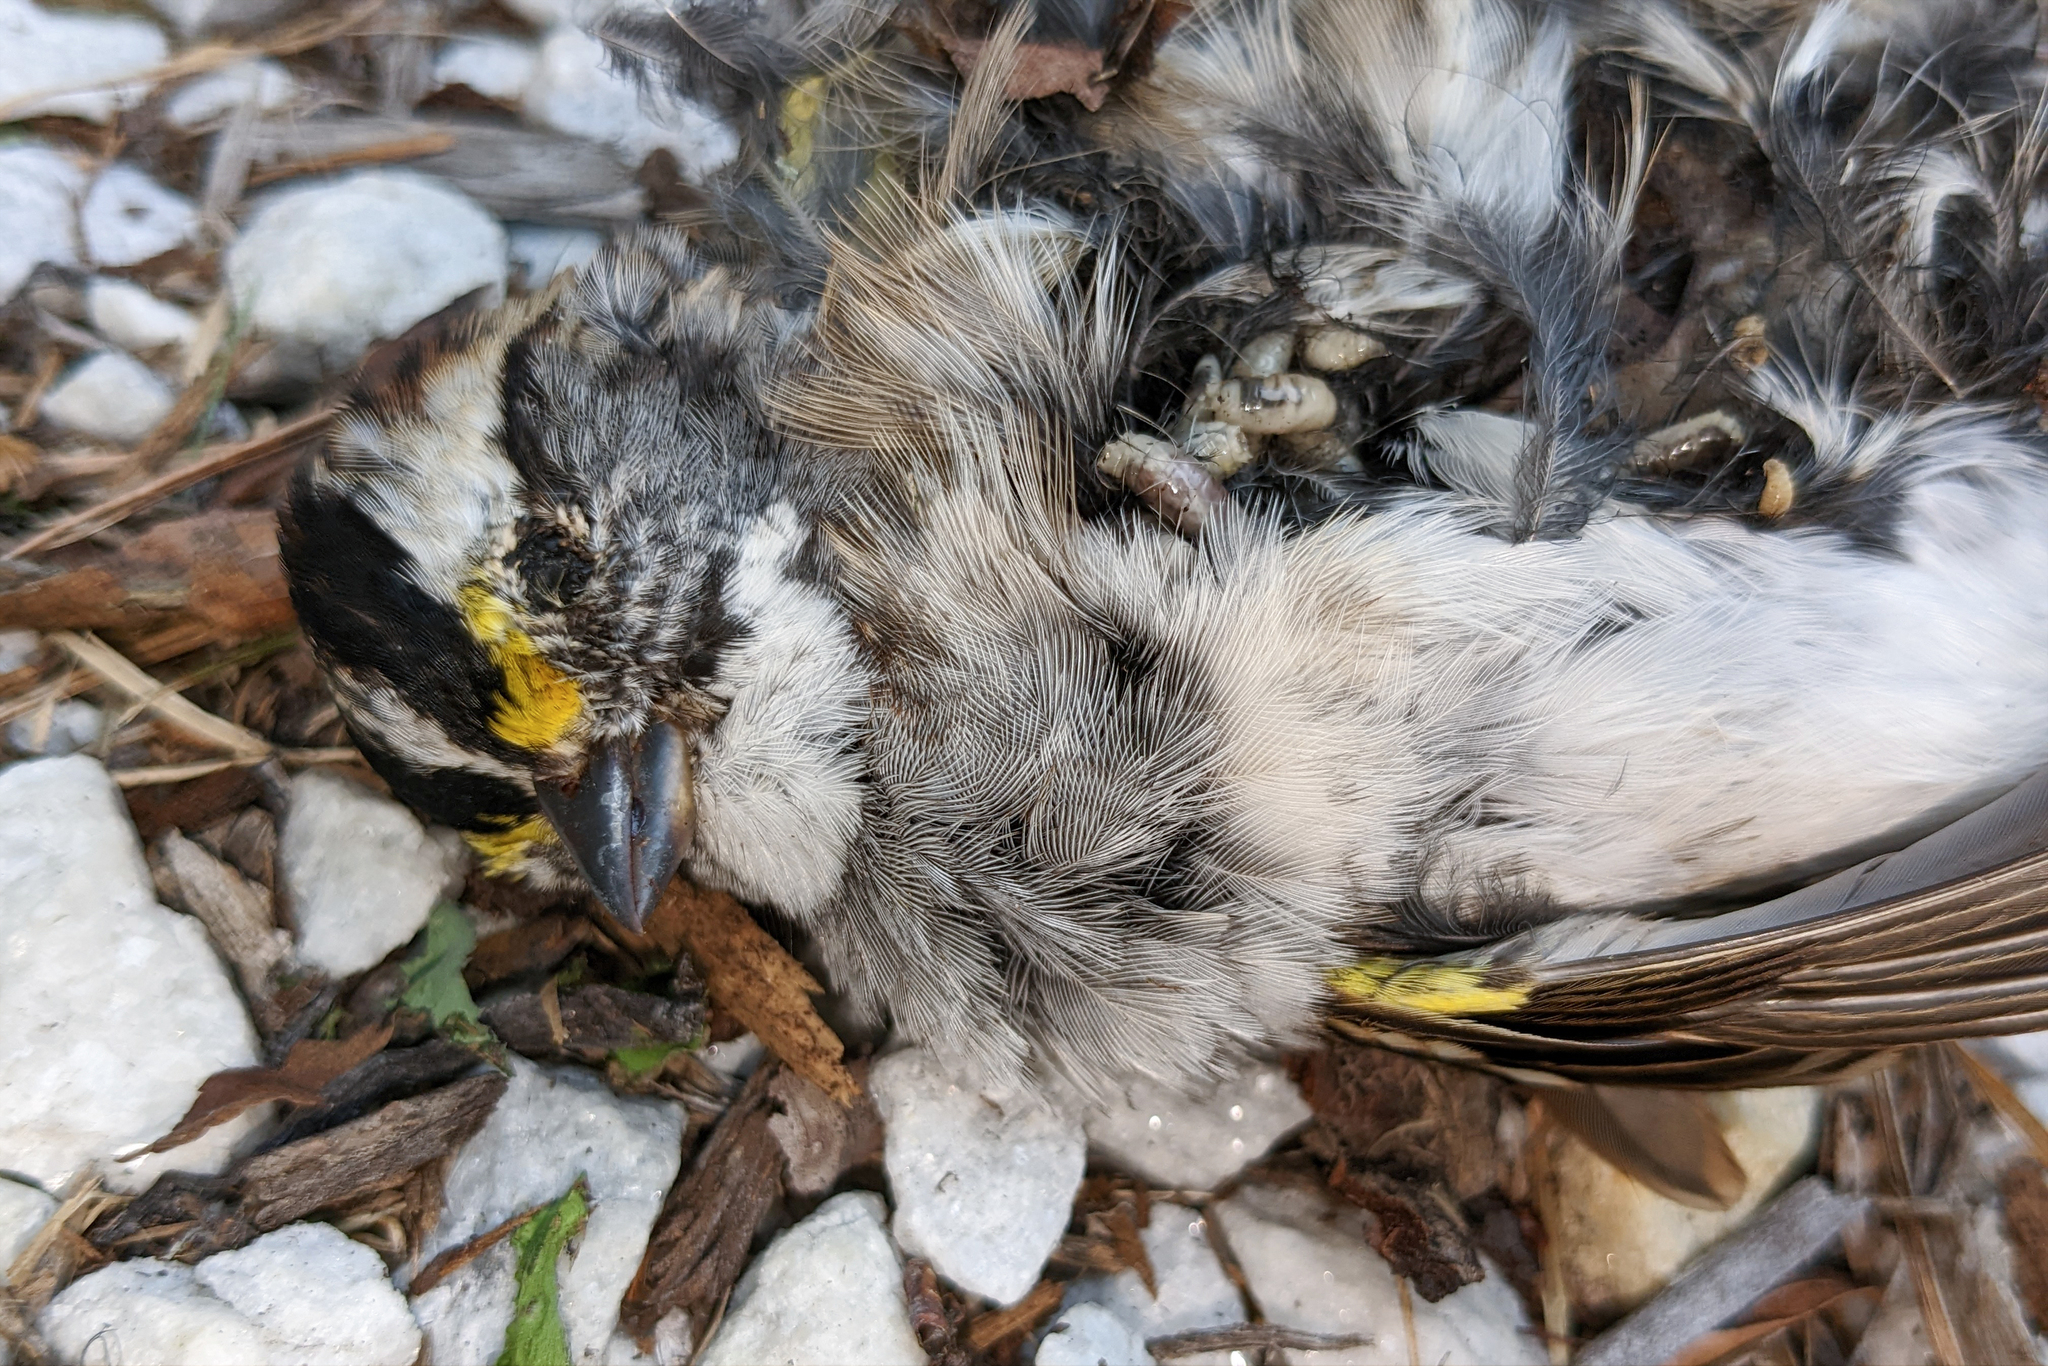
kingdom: Animalia
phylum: Chordata
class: Aves
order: Passeriformes
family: Passerellidae
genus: Zonotrichia
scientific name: Zonotrichia albicollis
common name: White-throated sparrow
